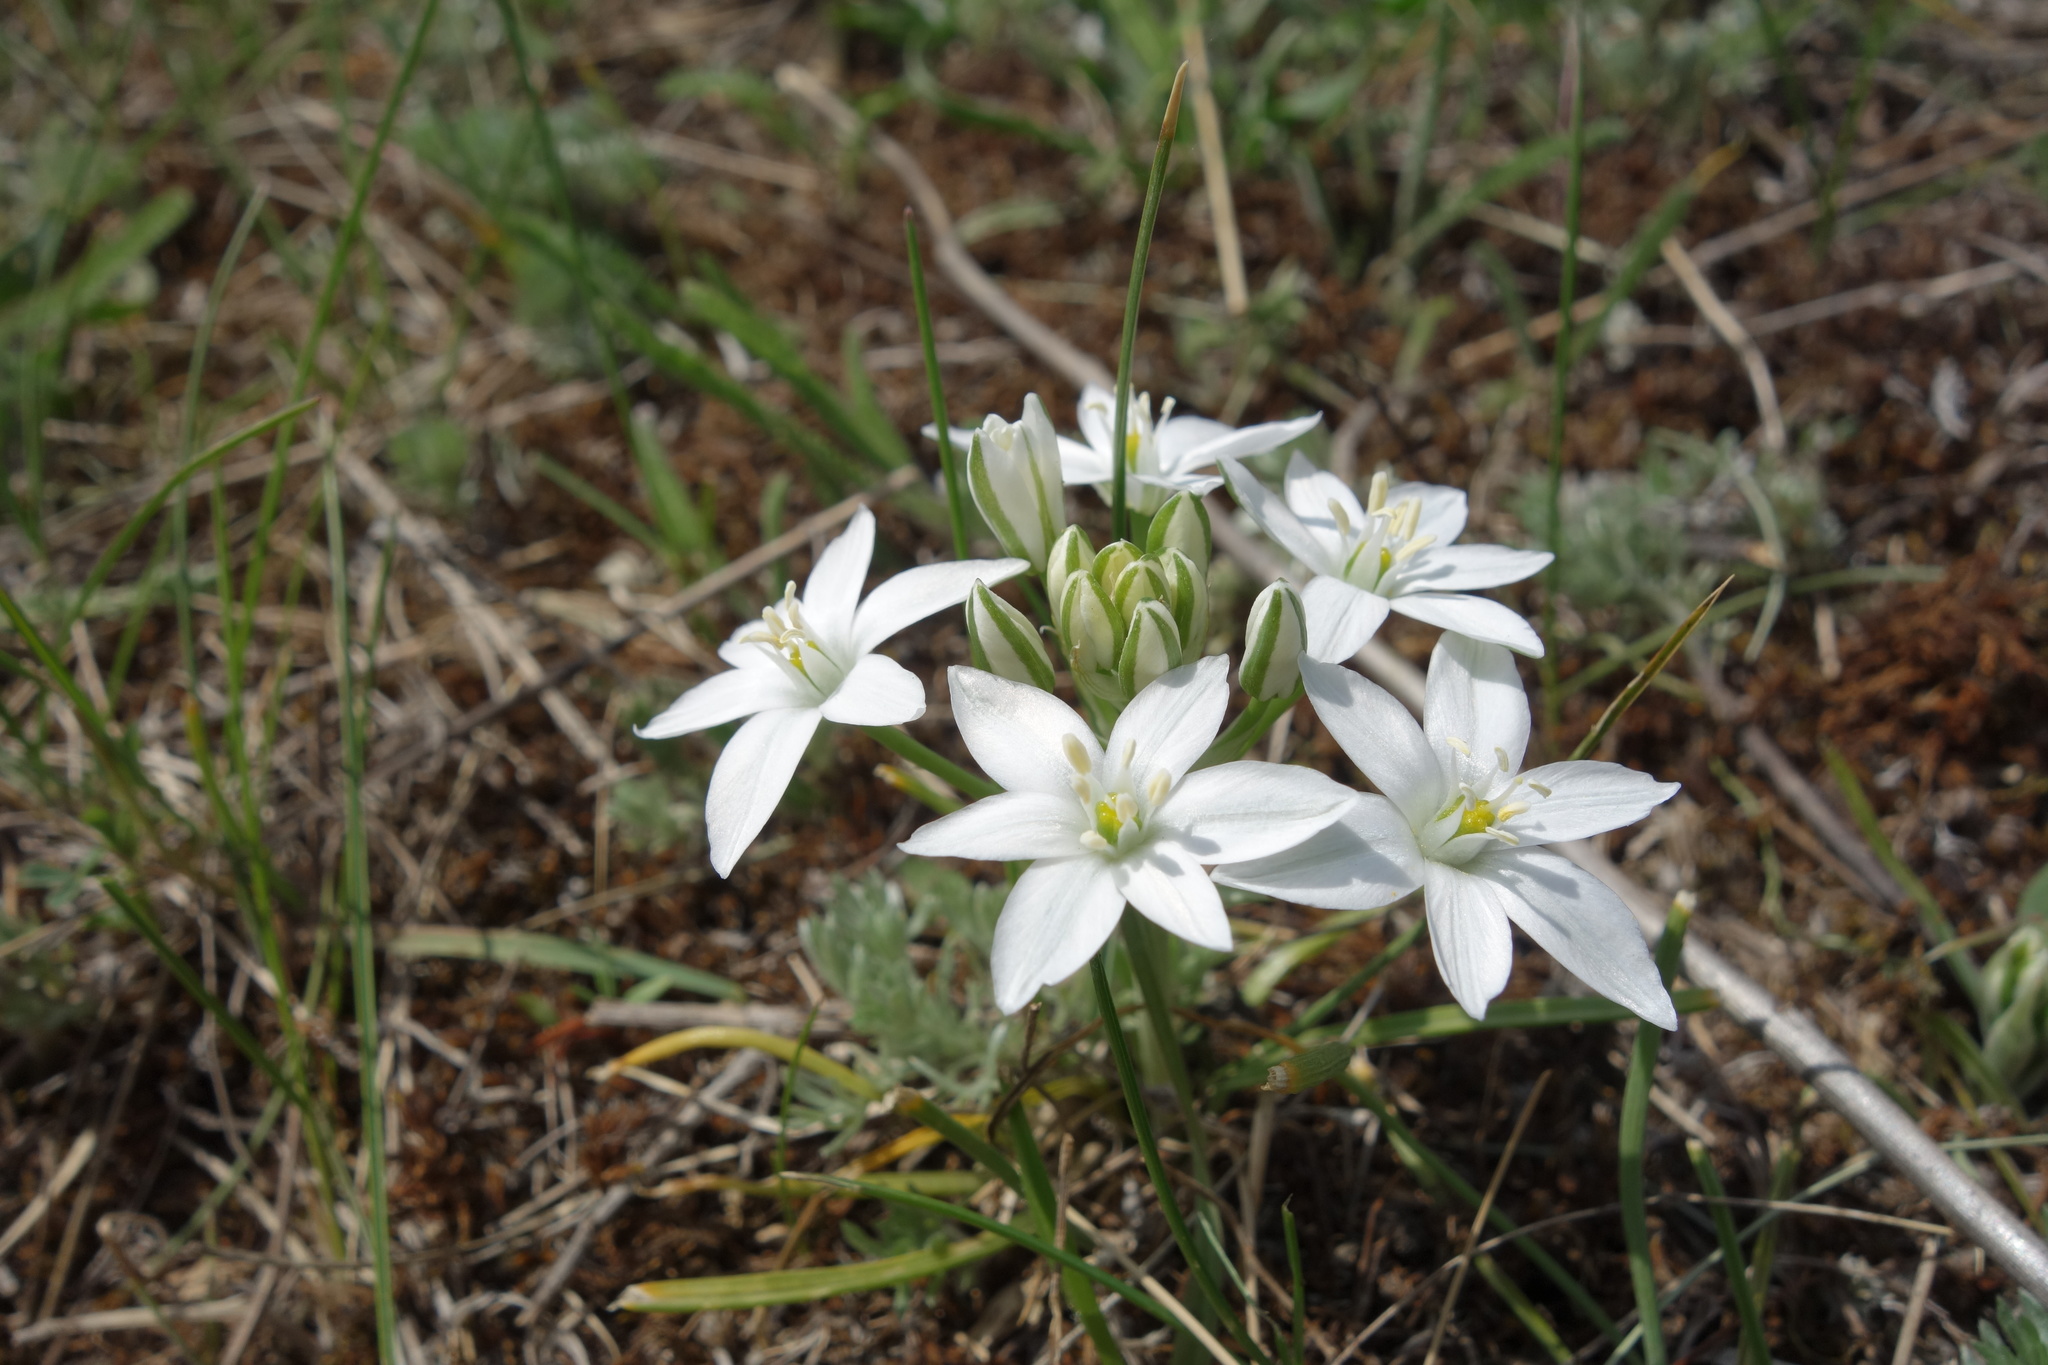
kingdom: Plantae
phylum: Tracheophyta
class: Liliopsida
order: Asparagales
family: Asparagaceae
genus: Ornithogalum
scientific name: Ornithogalum orthophyllum
